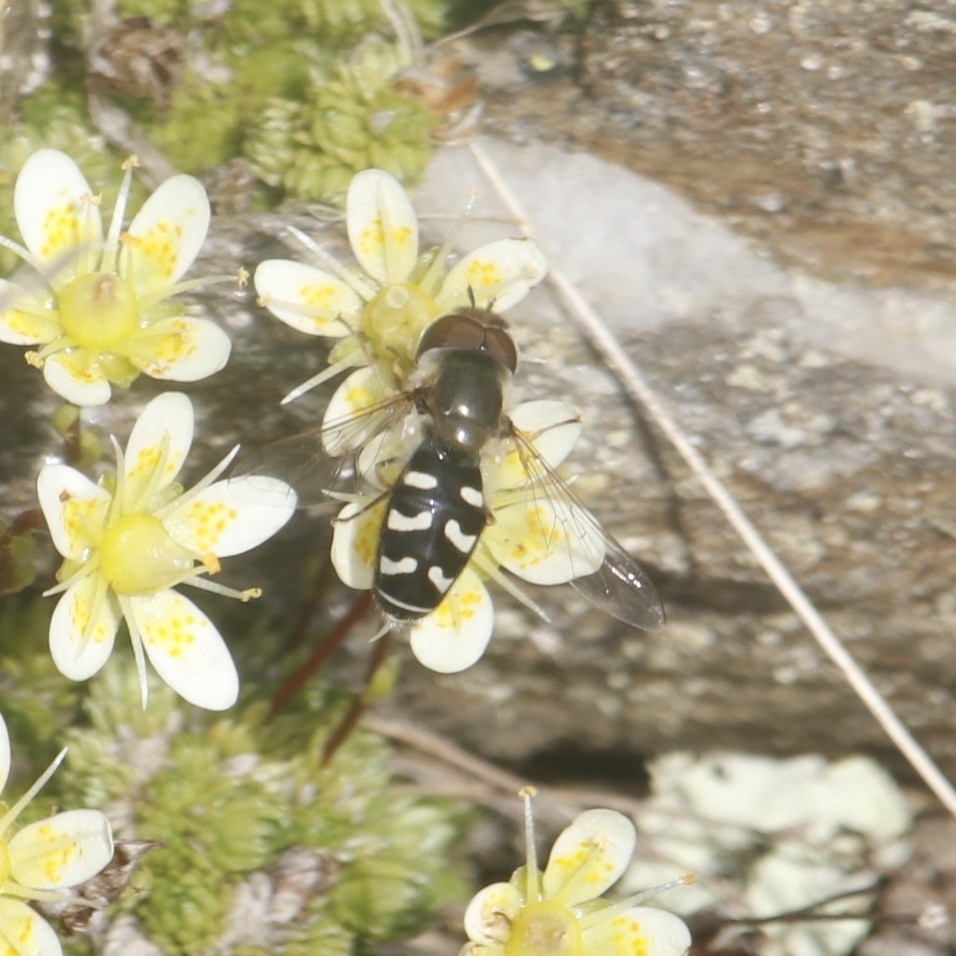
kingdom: Animalia
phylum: Arthropoda
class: Insecta
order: Diptera
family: Syrphidae
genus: Scaeva
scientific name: Scaeva pyrastri
